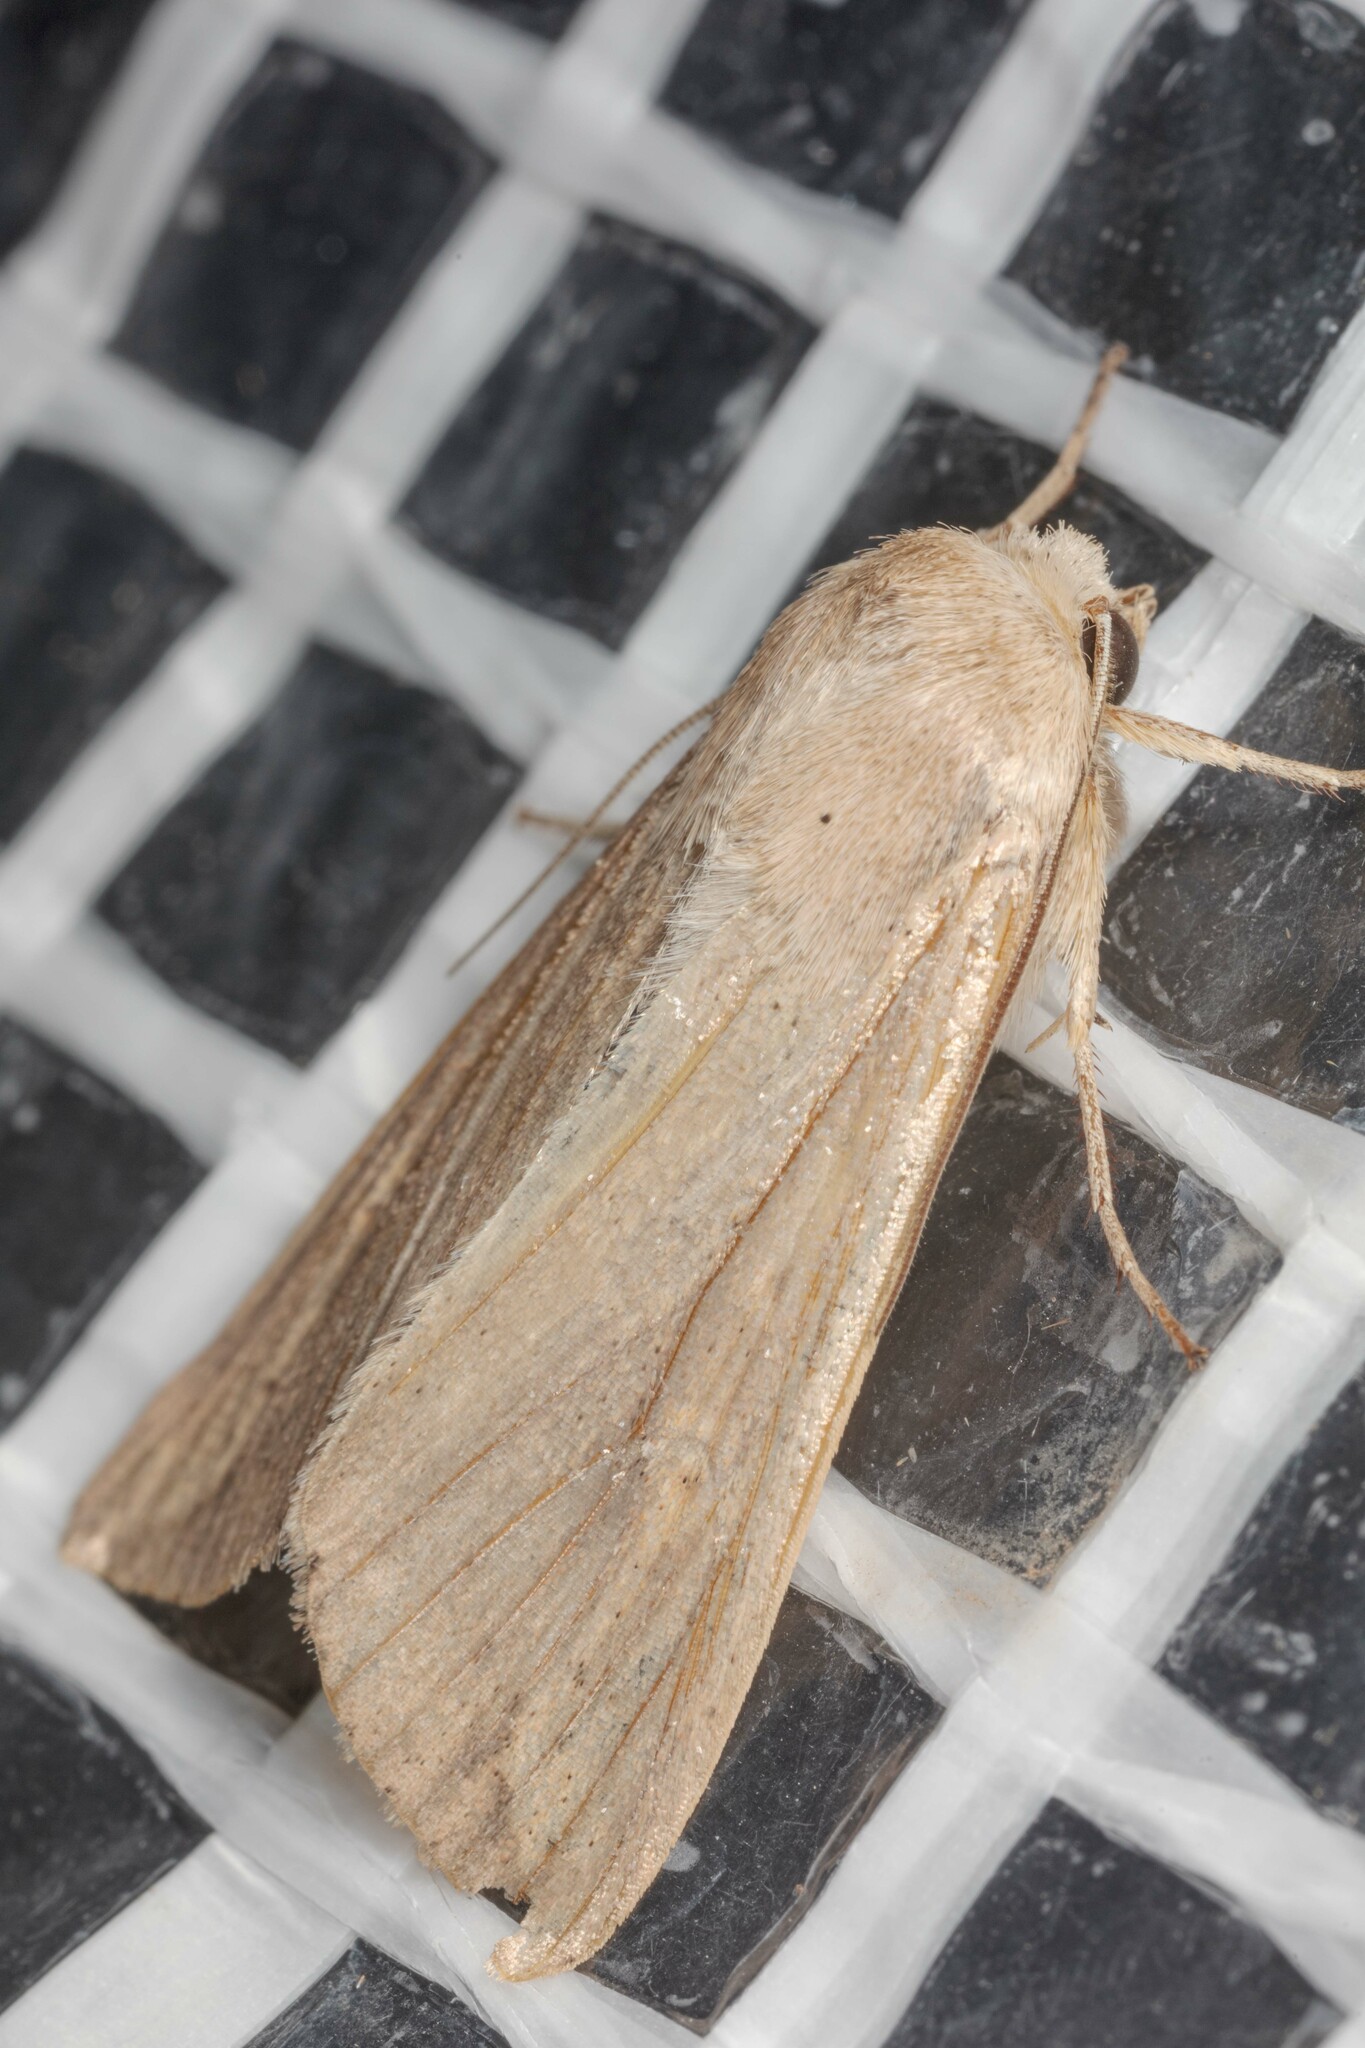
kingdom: Animalia
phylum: Arthropoda
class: Insecta
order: Lepidoptera
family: Noctuidae
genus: Mythimna
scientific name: Mythimna unipuncta
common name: White-speck
